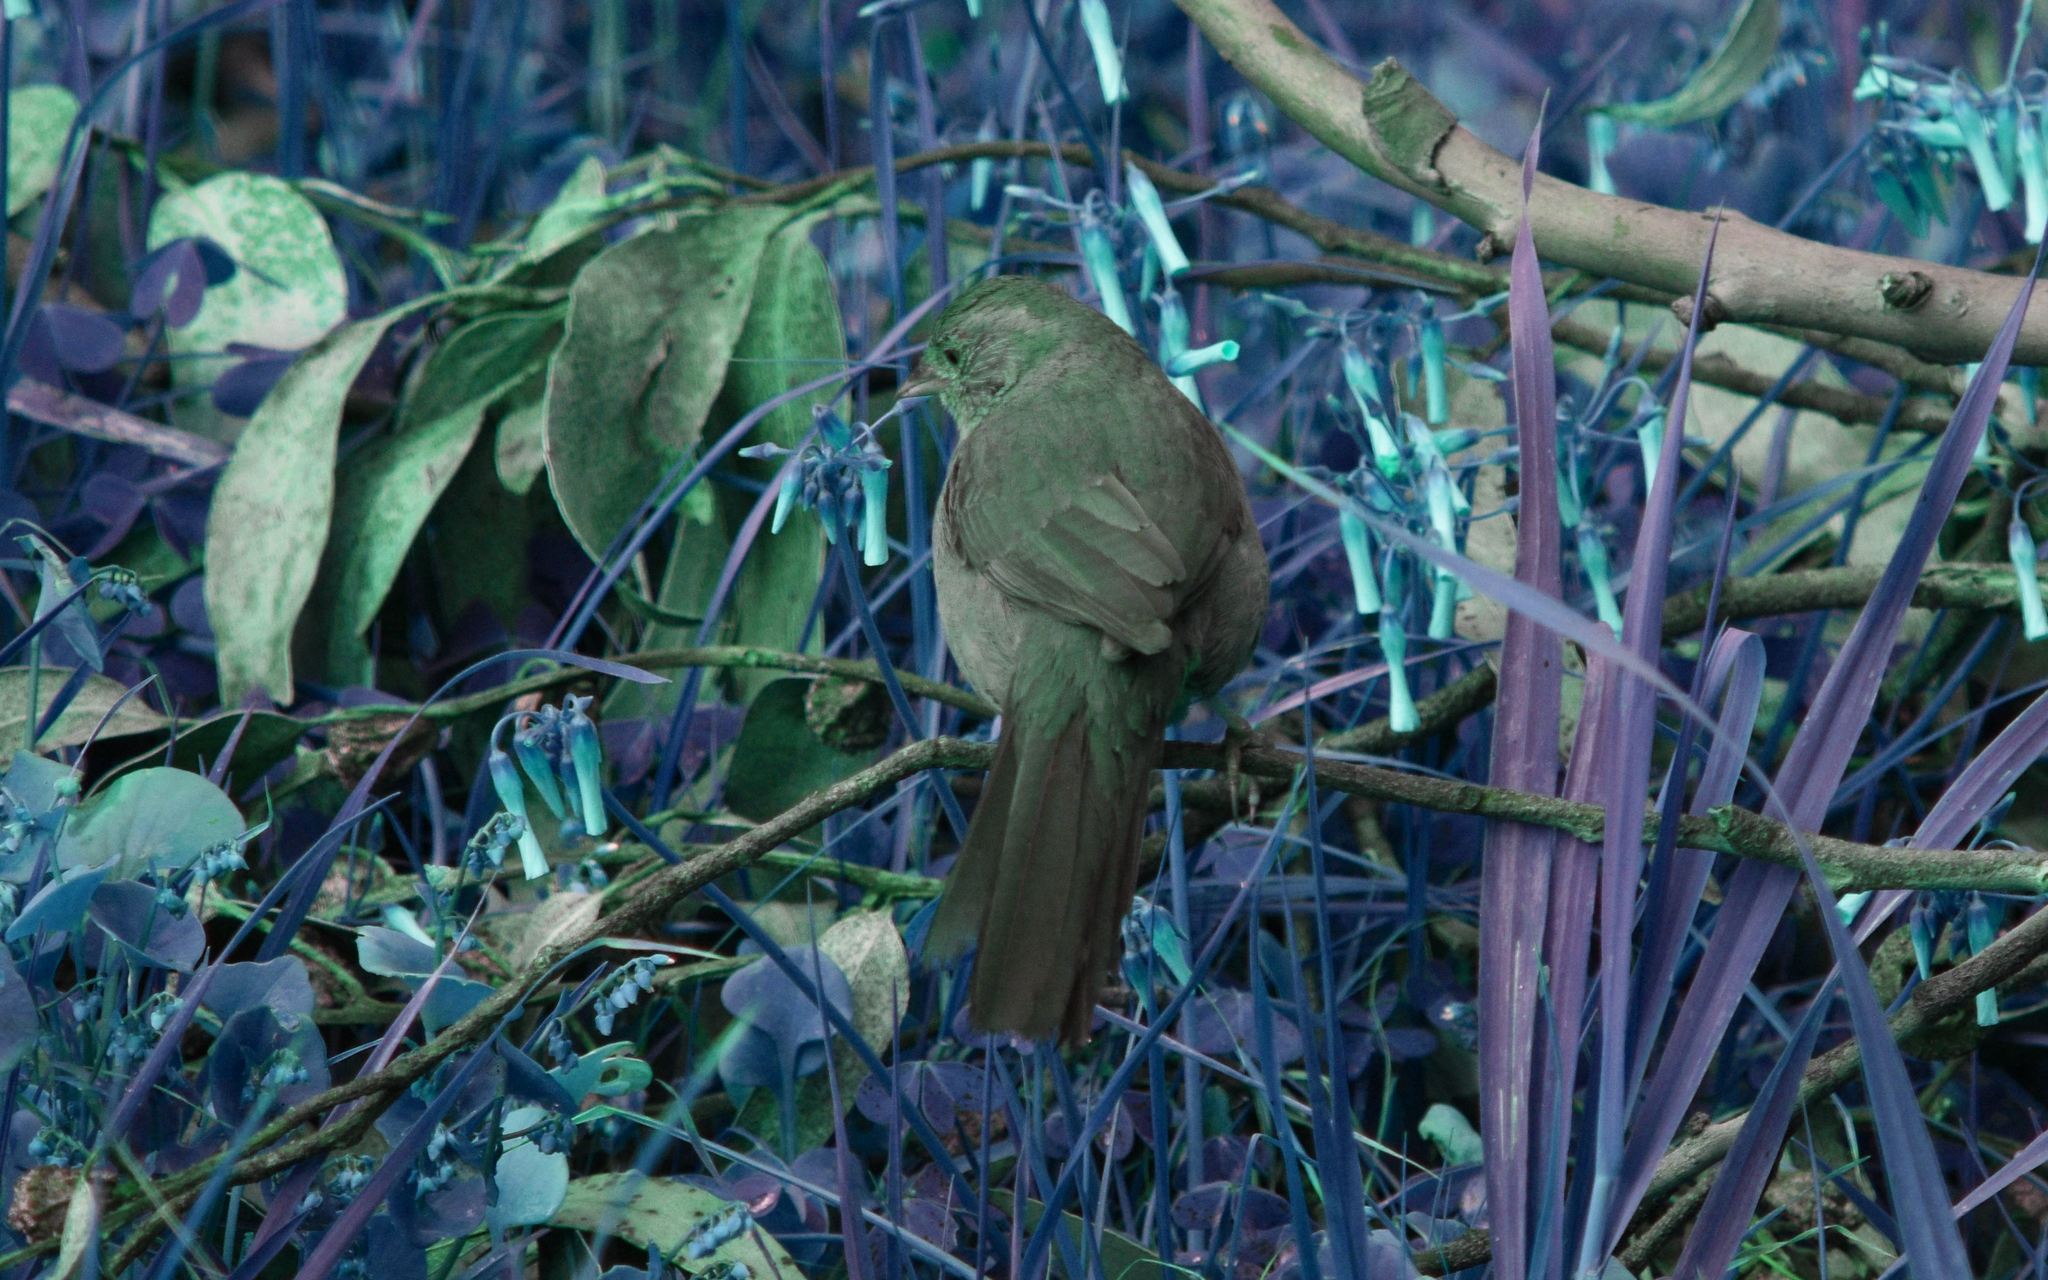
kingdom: Animalia
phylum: Chordata
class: Aves
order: Passeriformes
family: Passerellidae
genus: Melozone
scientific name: Melozone crissalis
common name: California towhee
